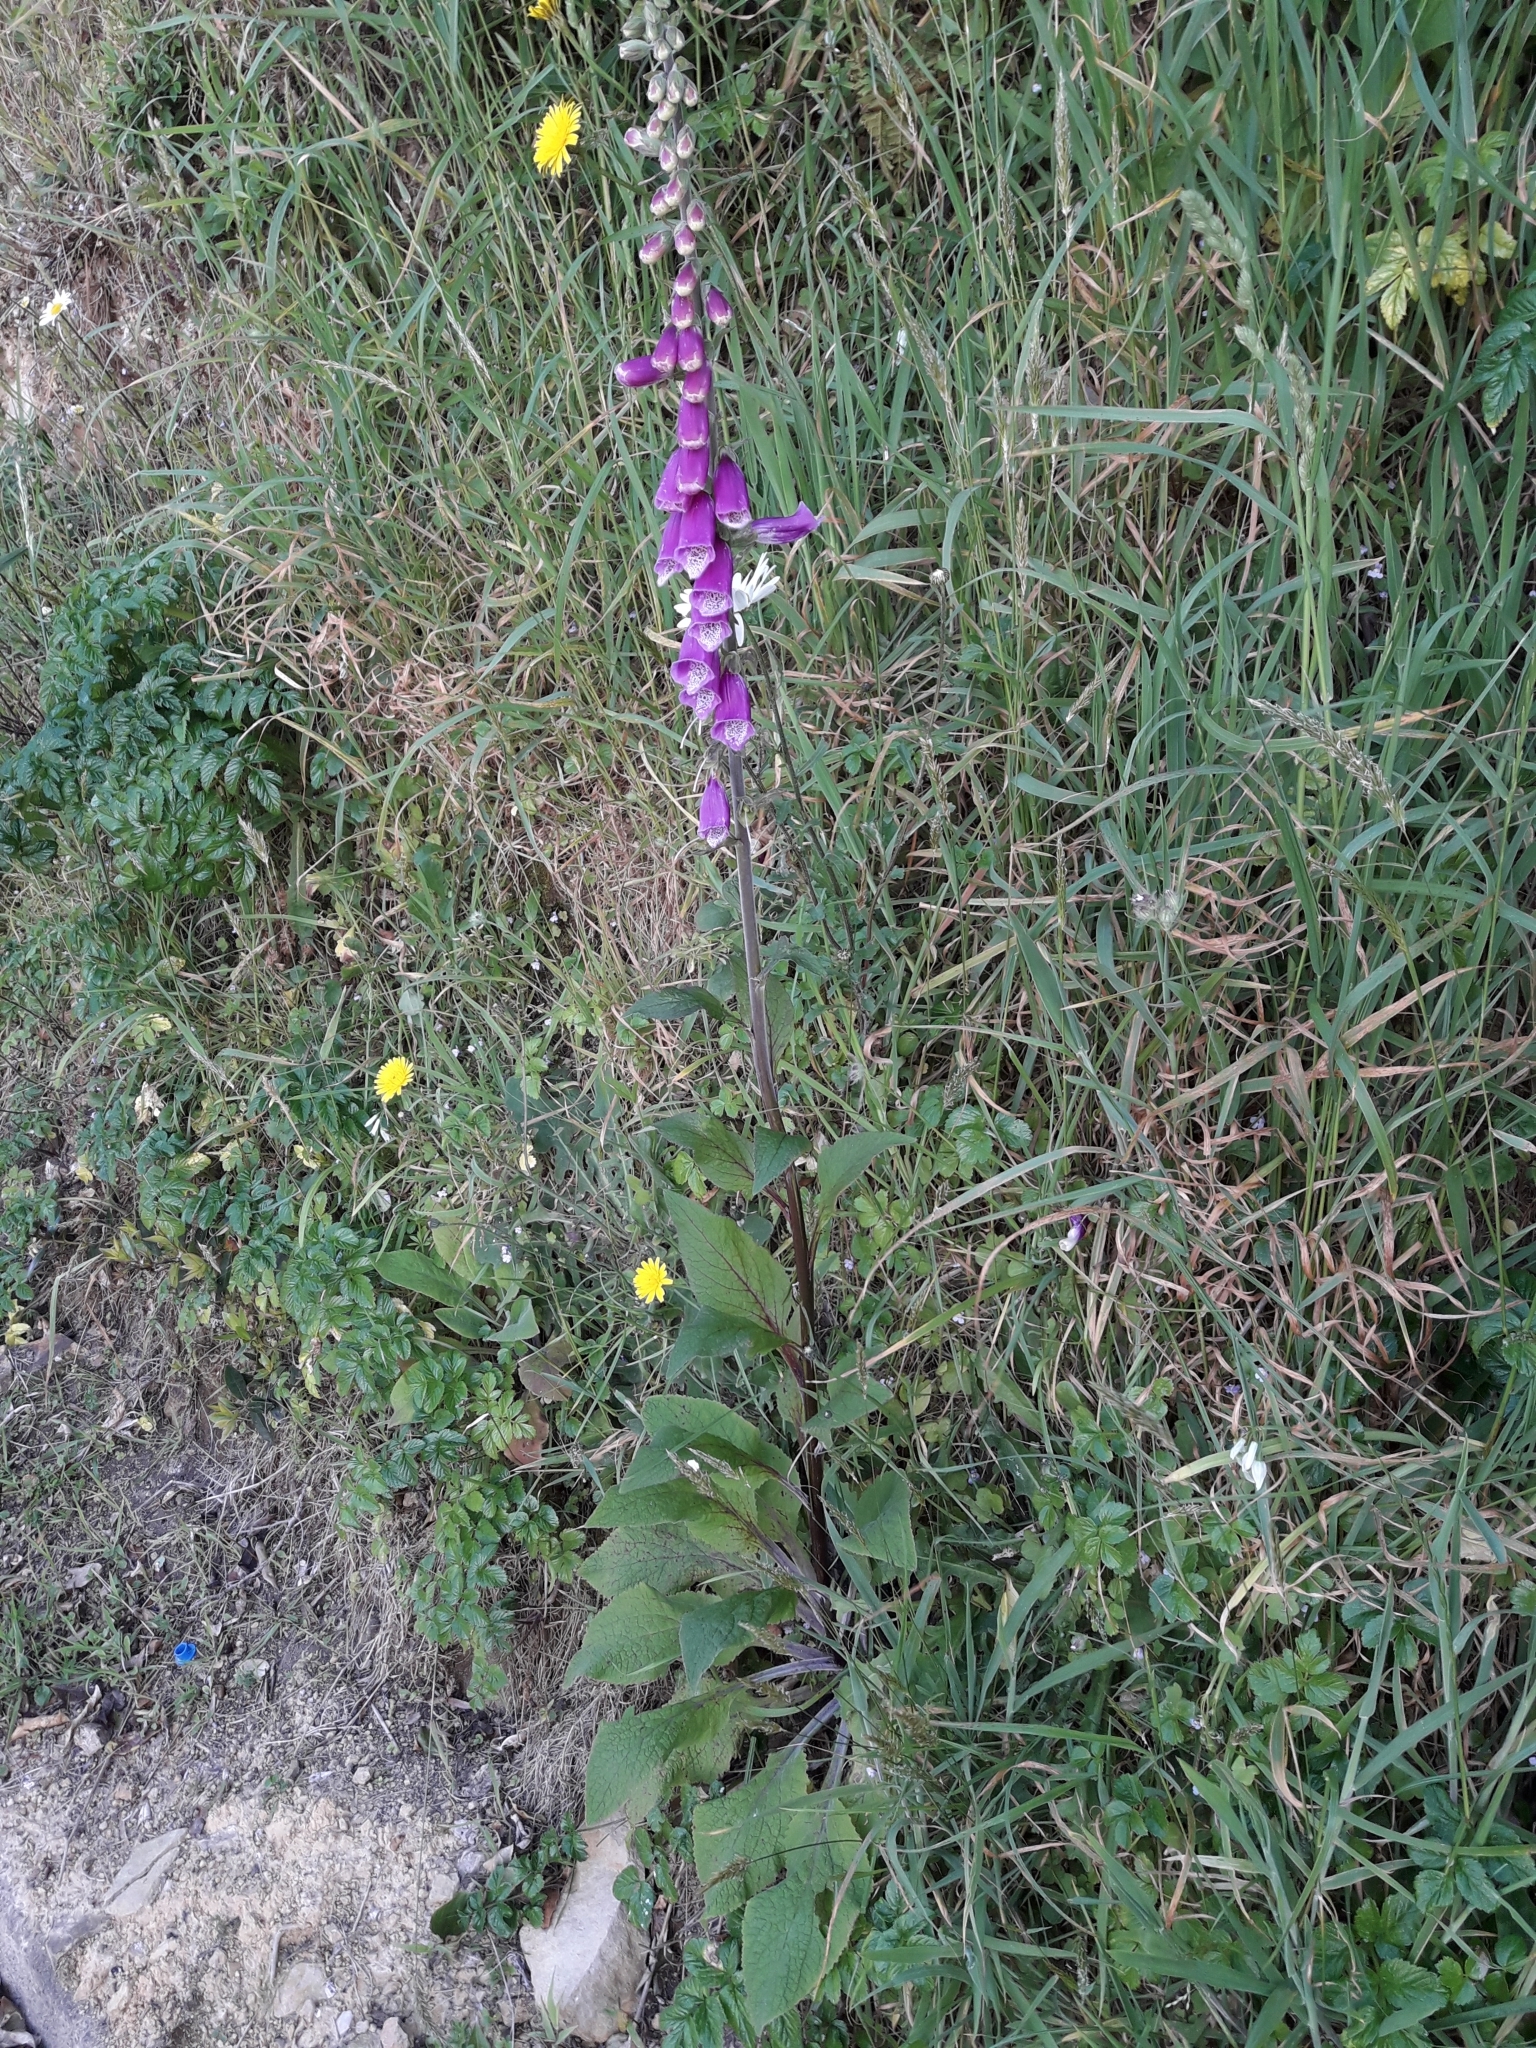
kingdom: Plantae
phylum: Tracheophyta
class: Magnoliopsida
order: Lamiales
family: Plantaginaceae
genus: Digitalis
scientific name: Digitalis purpurea
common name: Foxglove
